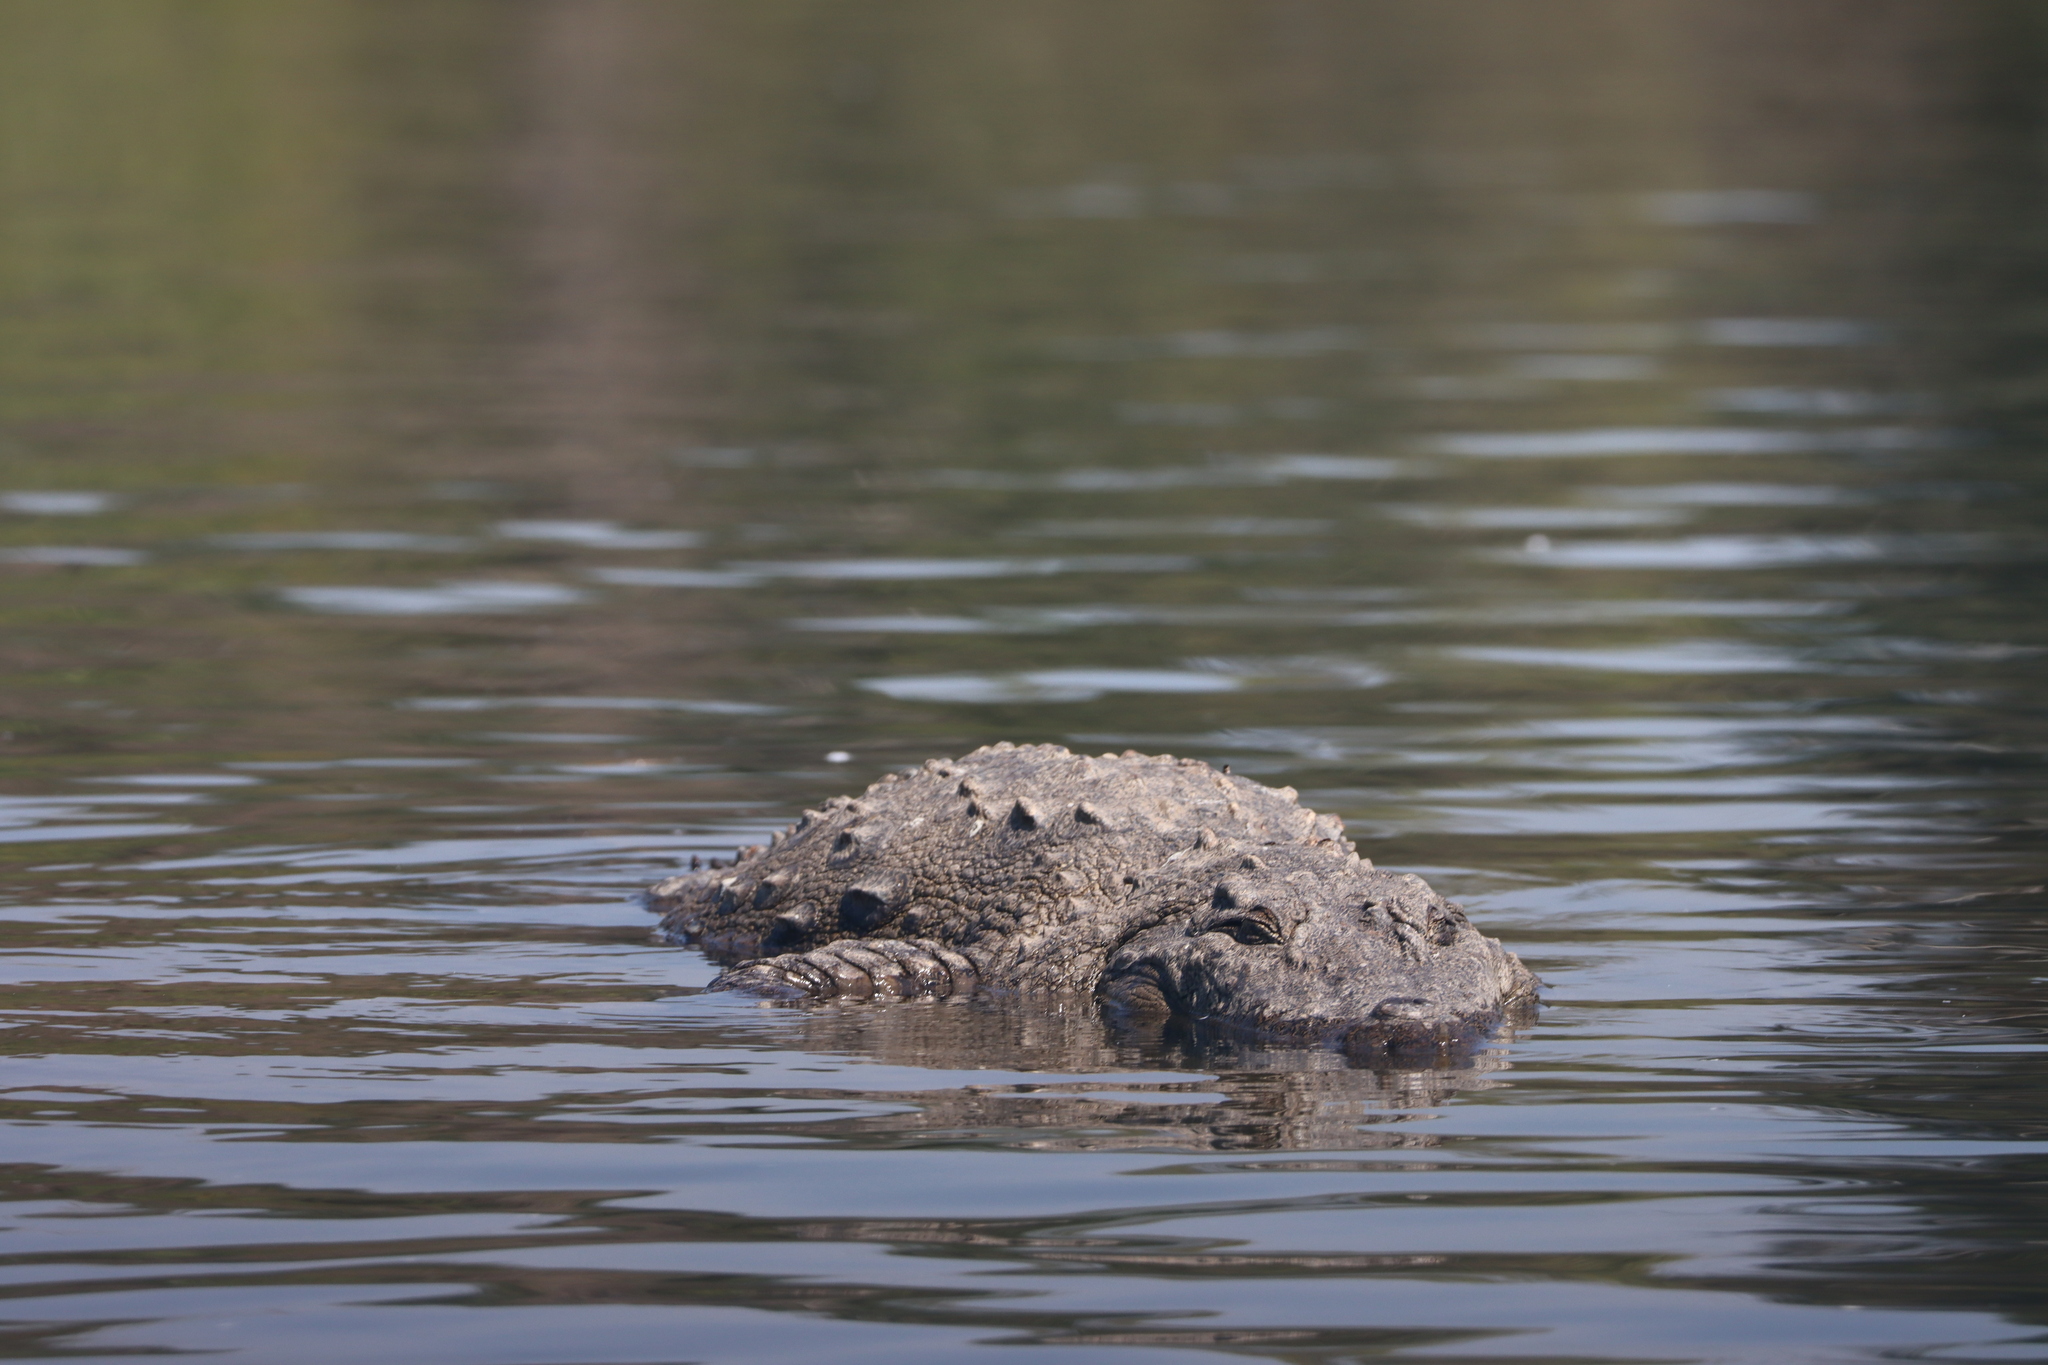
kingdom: Animalia
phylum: Chordata
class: Crocodylia
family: Crocodylidae
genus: Crocodylus
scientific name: Crocodylus palustris
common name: Mugger crocodile
